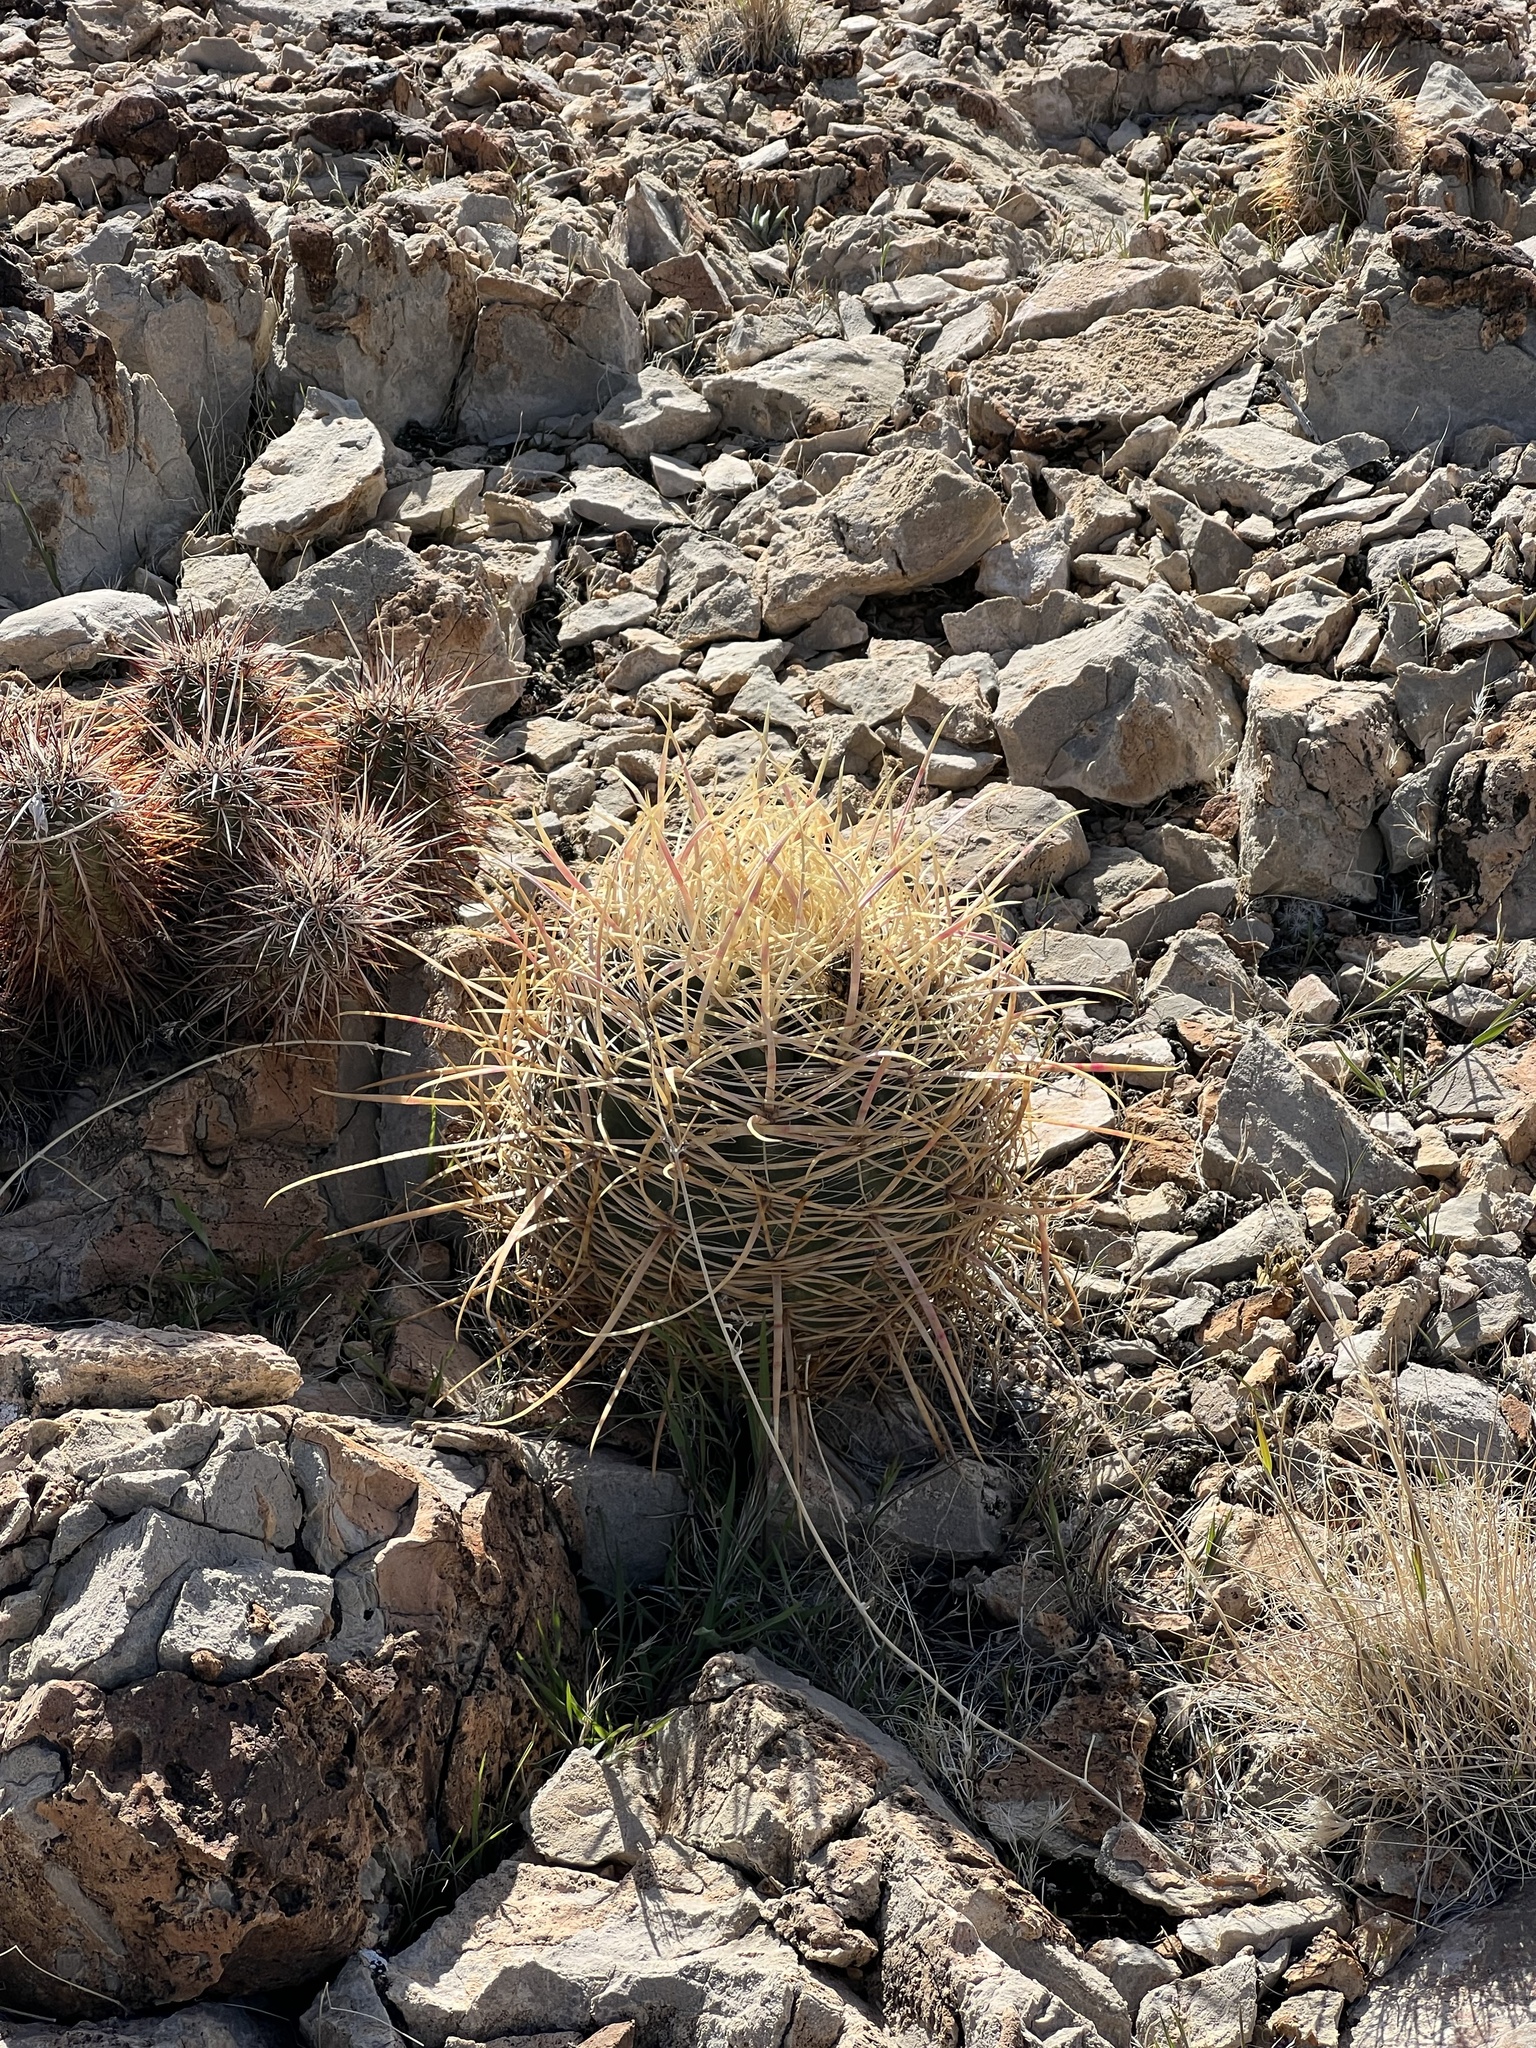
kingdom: Plantae
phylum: Tracheophyta
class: Magnoliopsida
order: Caryophyllales
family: Cactaceae
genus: Ferocactus
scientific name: Ferocactus cylindraceus
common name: California barrel cactus
